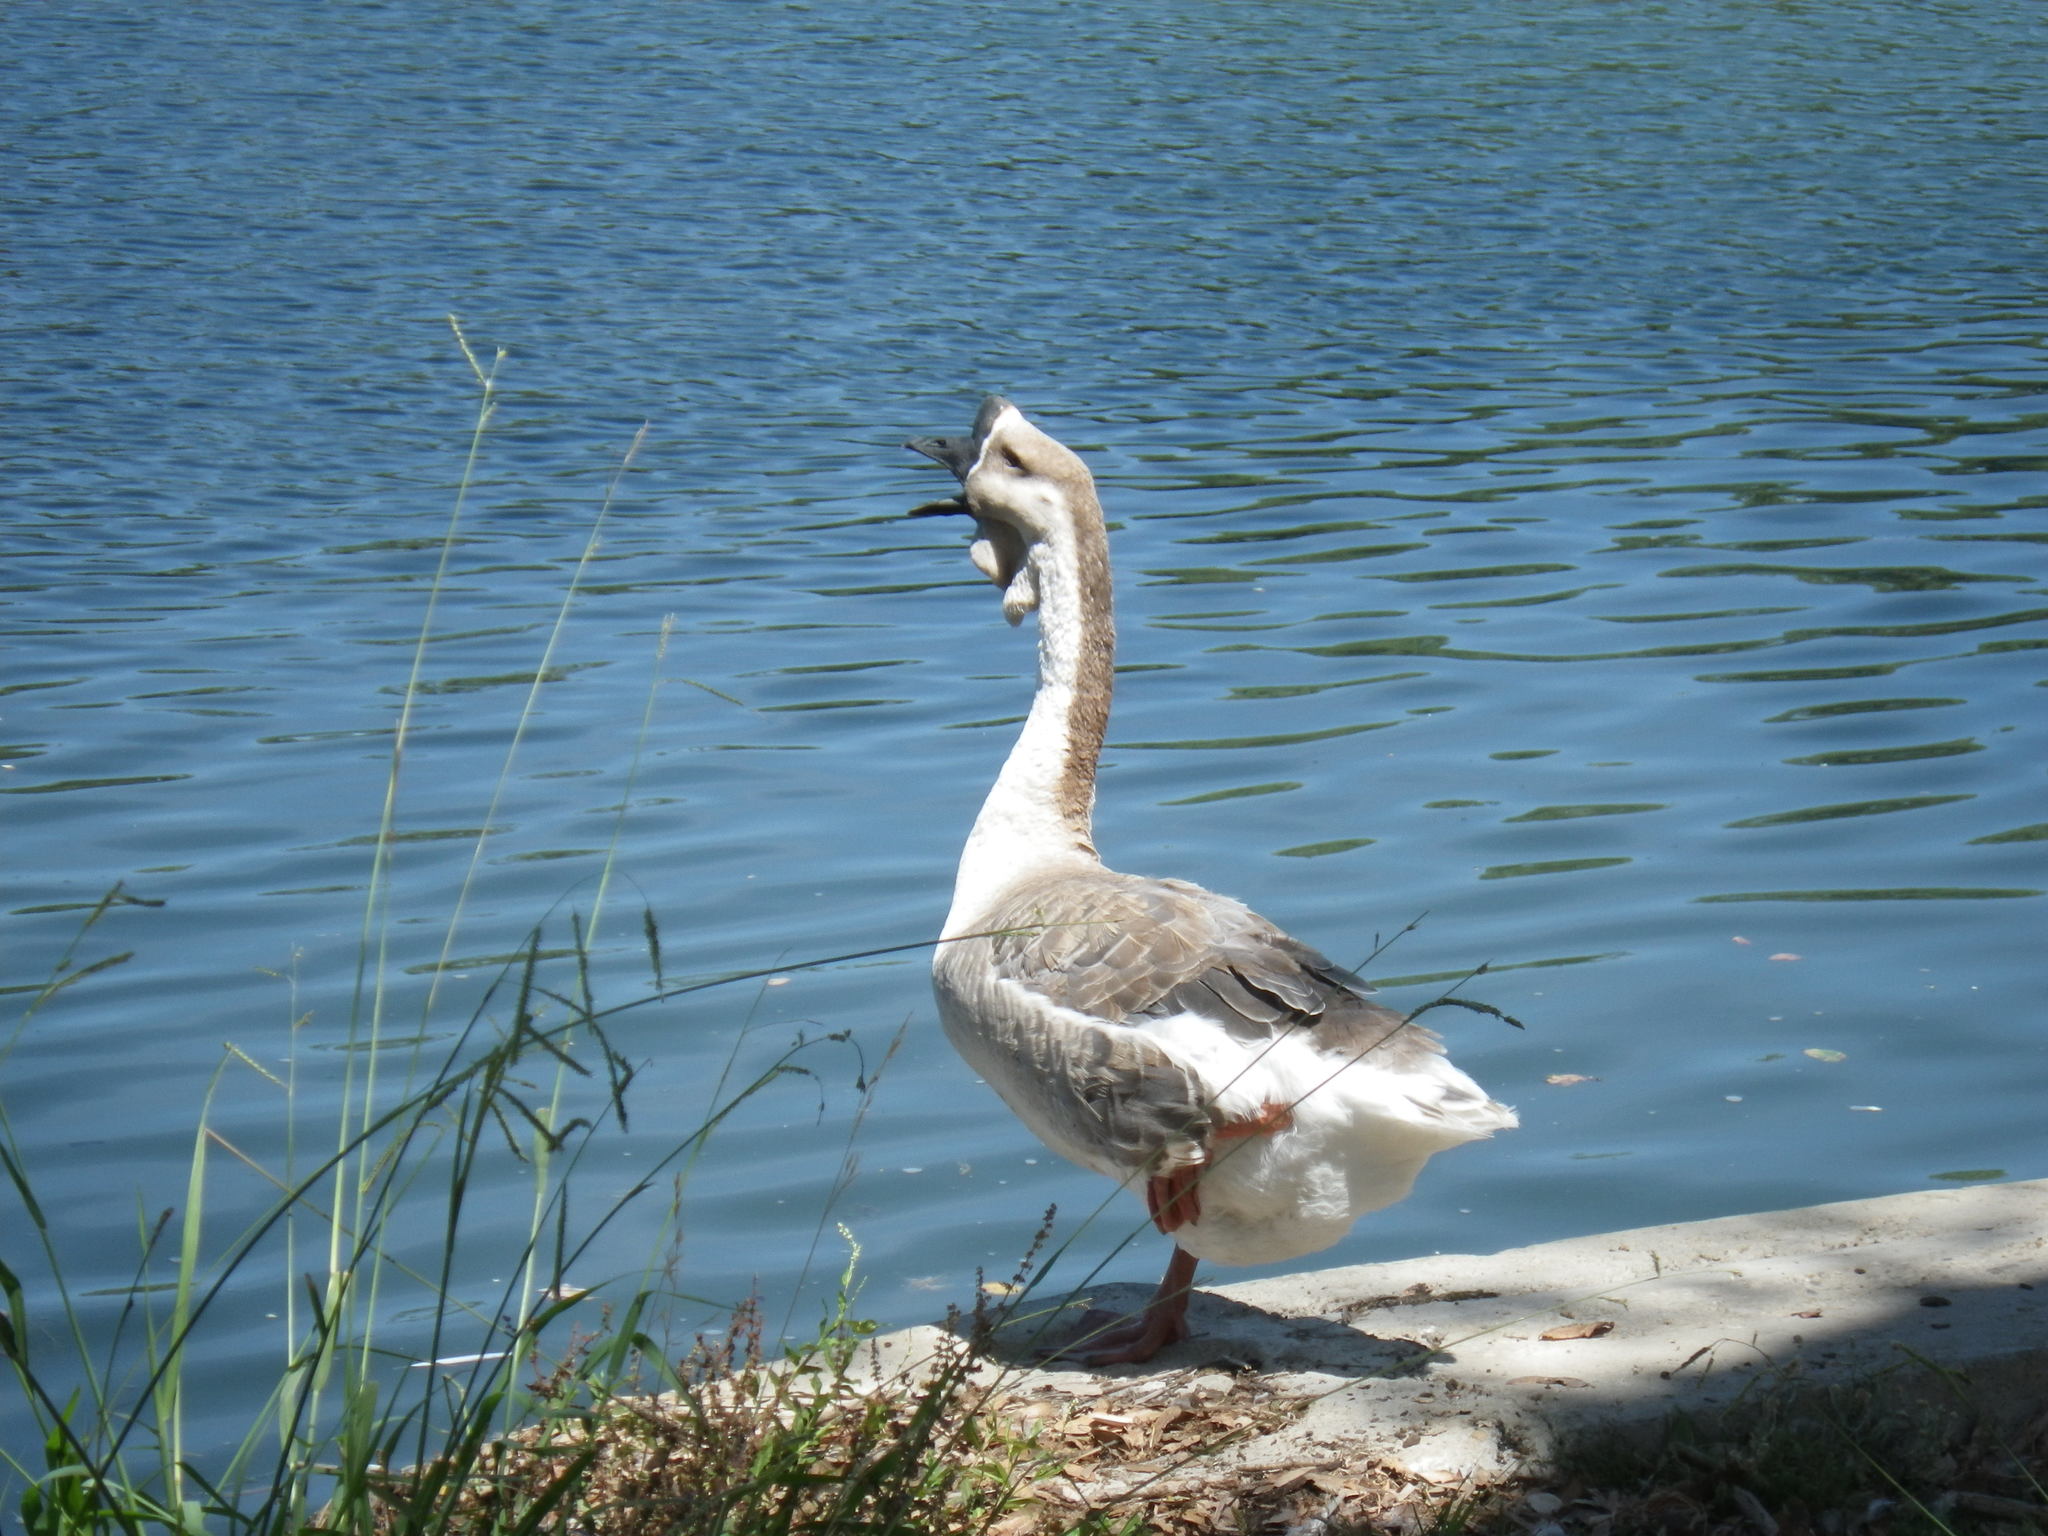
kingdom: Animalia
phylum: Chordata
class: Aves
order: Anseriformes
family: Anatidae
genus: Anser
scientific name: Anser cygnoides
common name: Swan goose
